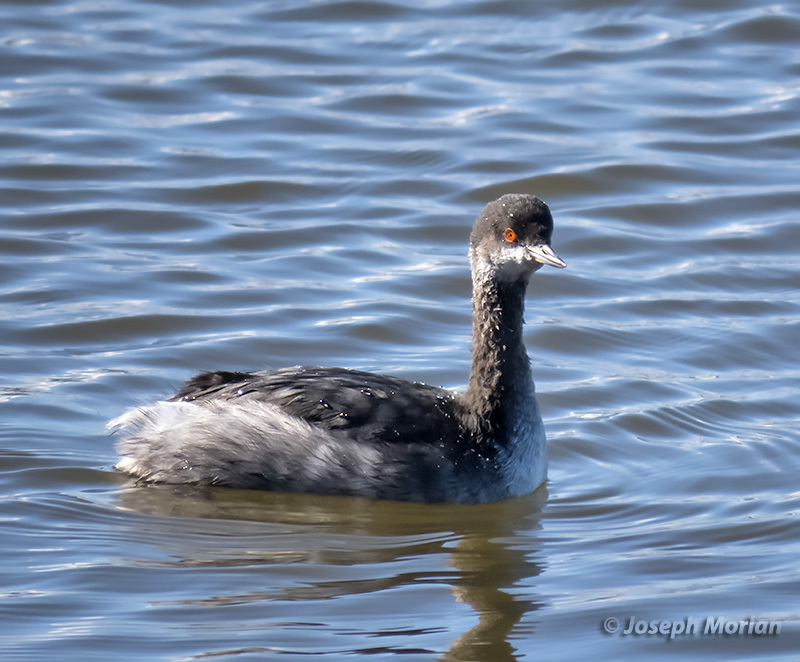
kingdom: Animalia
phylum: Chordata
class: Aves
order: Podicipediformes
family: Podicipedidae
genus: Podiceps
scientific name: Podiceps nigricollis
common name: Black-necked grebe
